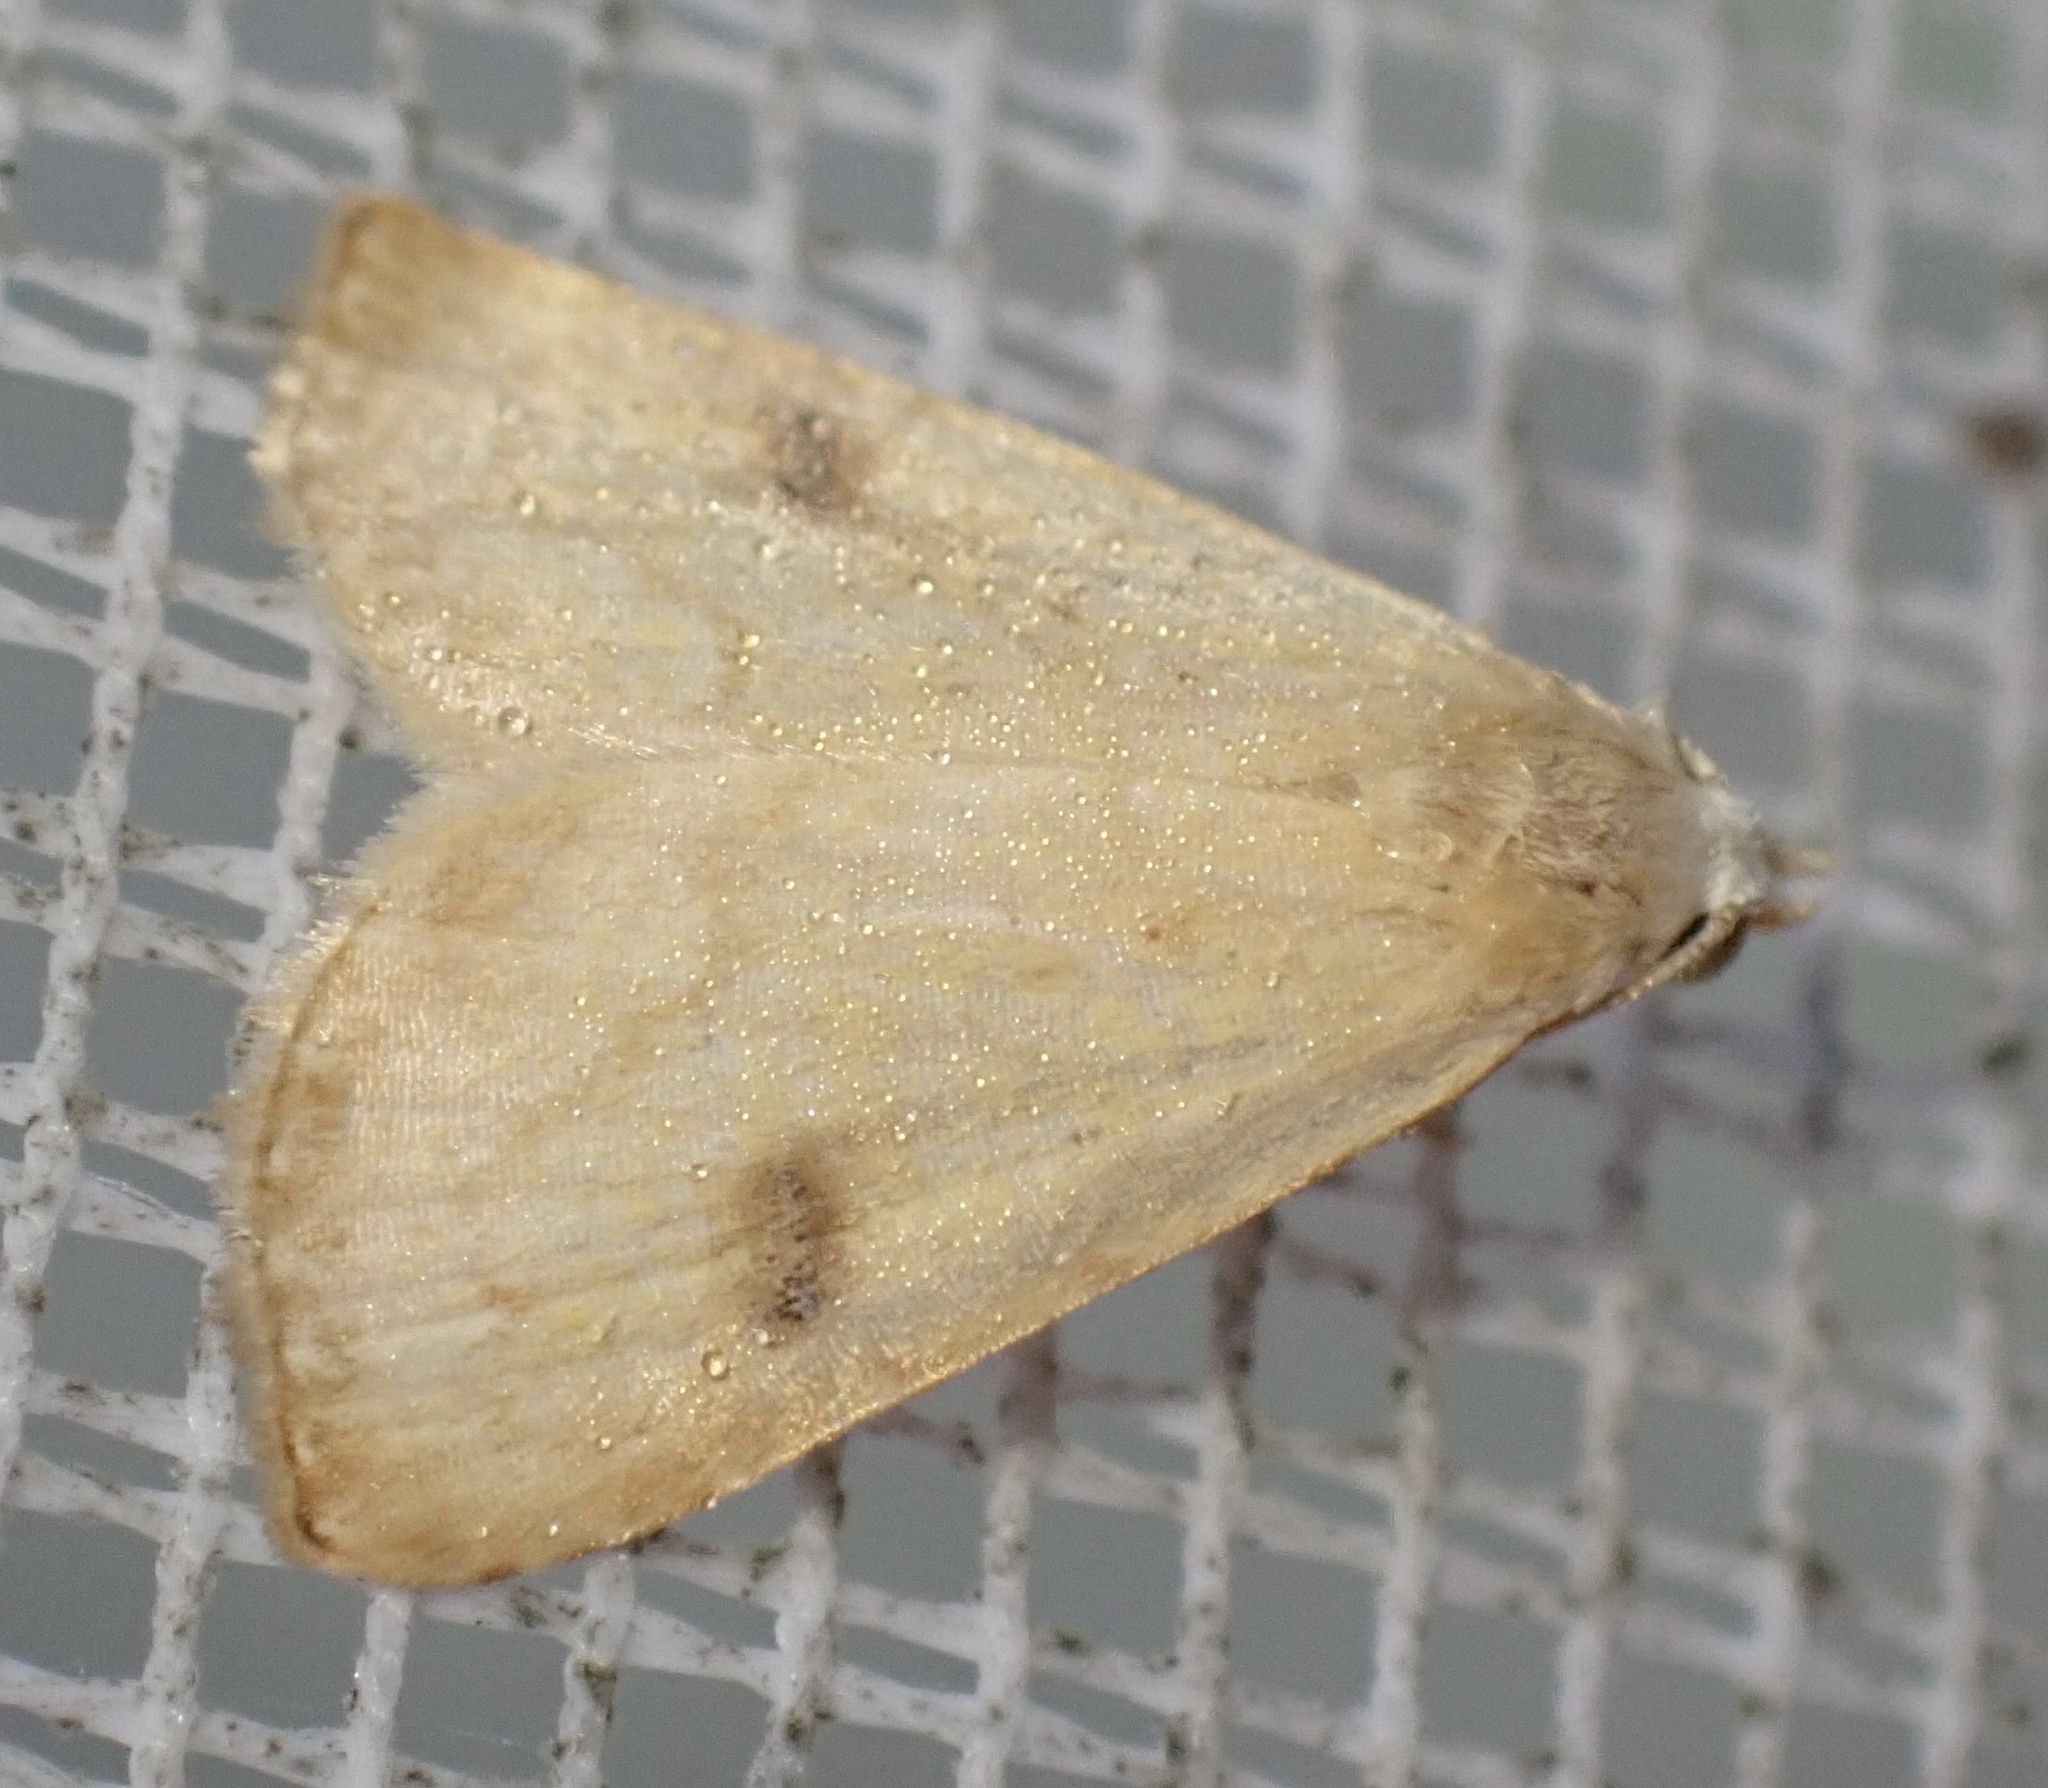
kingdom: Animalia
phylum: Arthropoda
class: Insecta
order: Lepidoptera
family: Erebidae
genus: Rivula
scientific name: Rivula sericealis
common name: Straw dot
